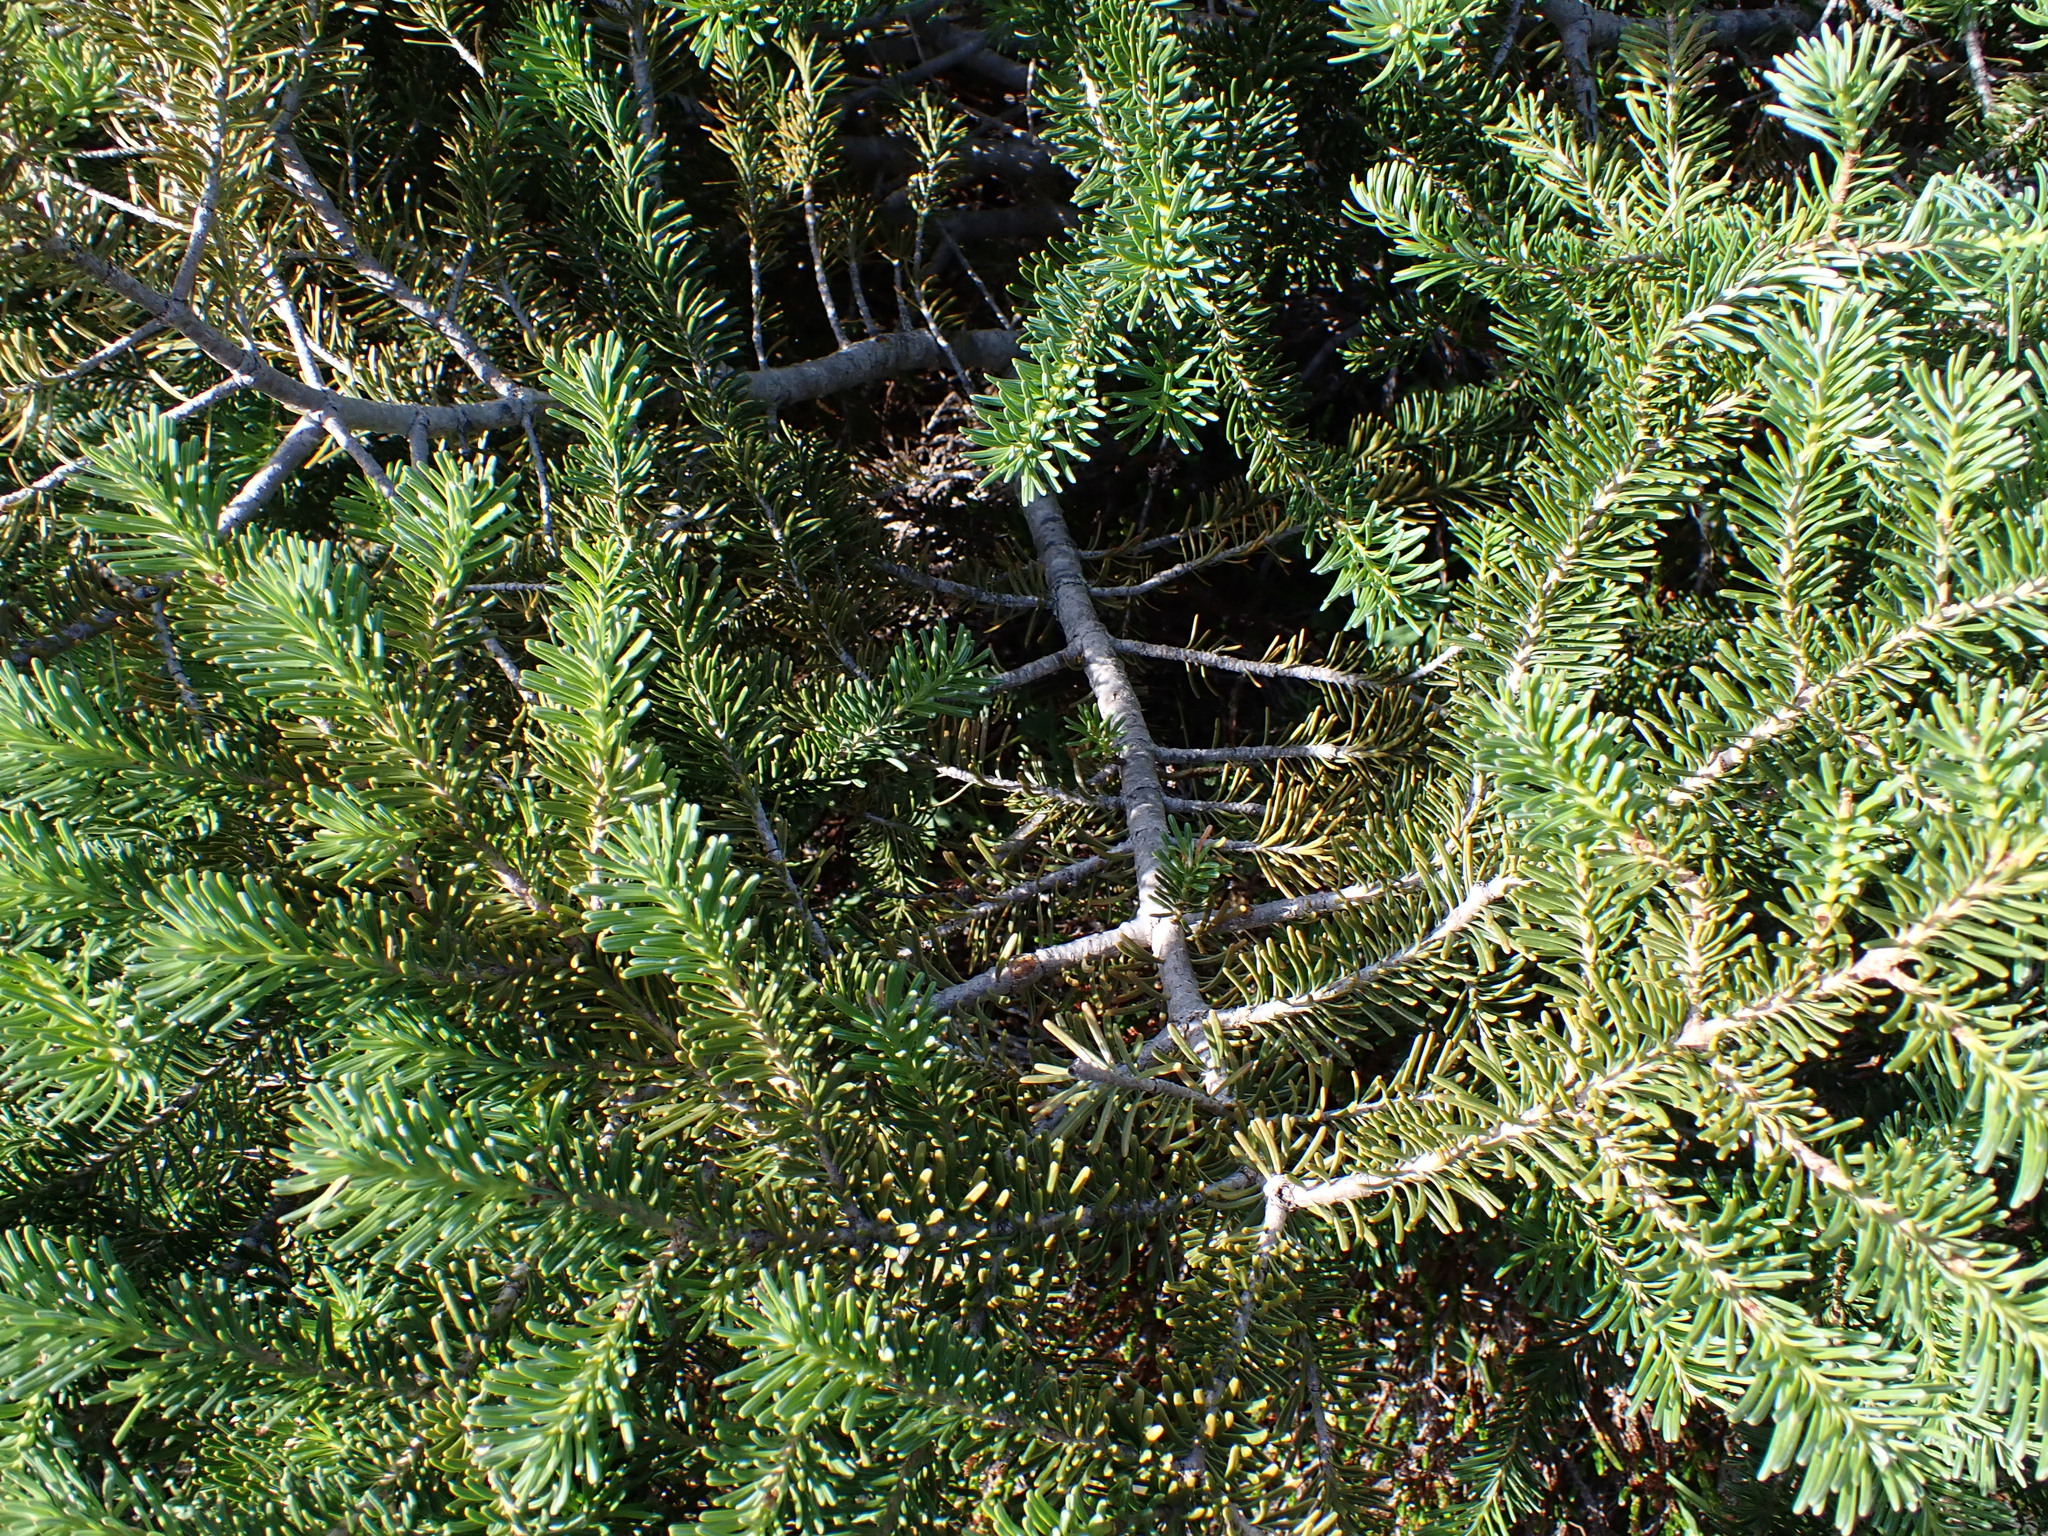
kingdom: Plantae
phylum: Tracheophyta
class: Pinopsida
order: Pinales
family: Pinaceae
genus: Abies
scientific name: Abies lasiocarpa
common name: Subalpine fir
